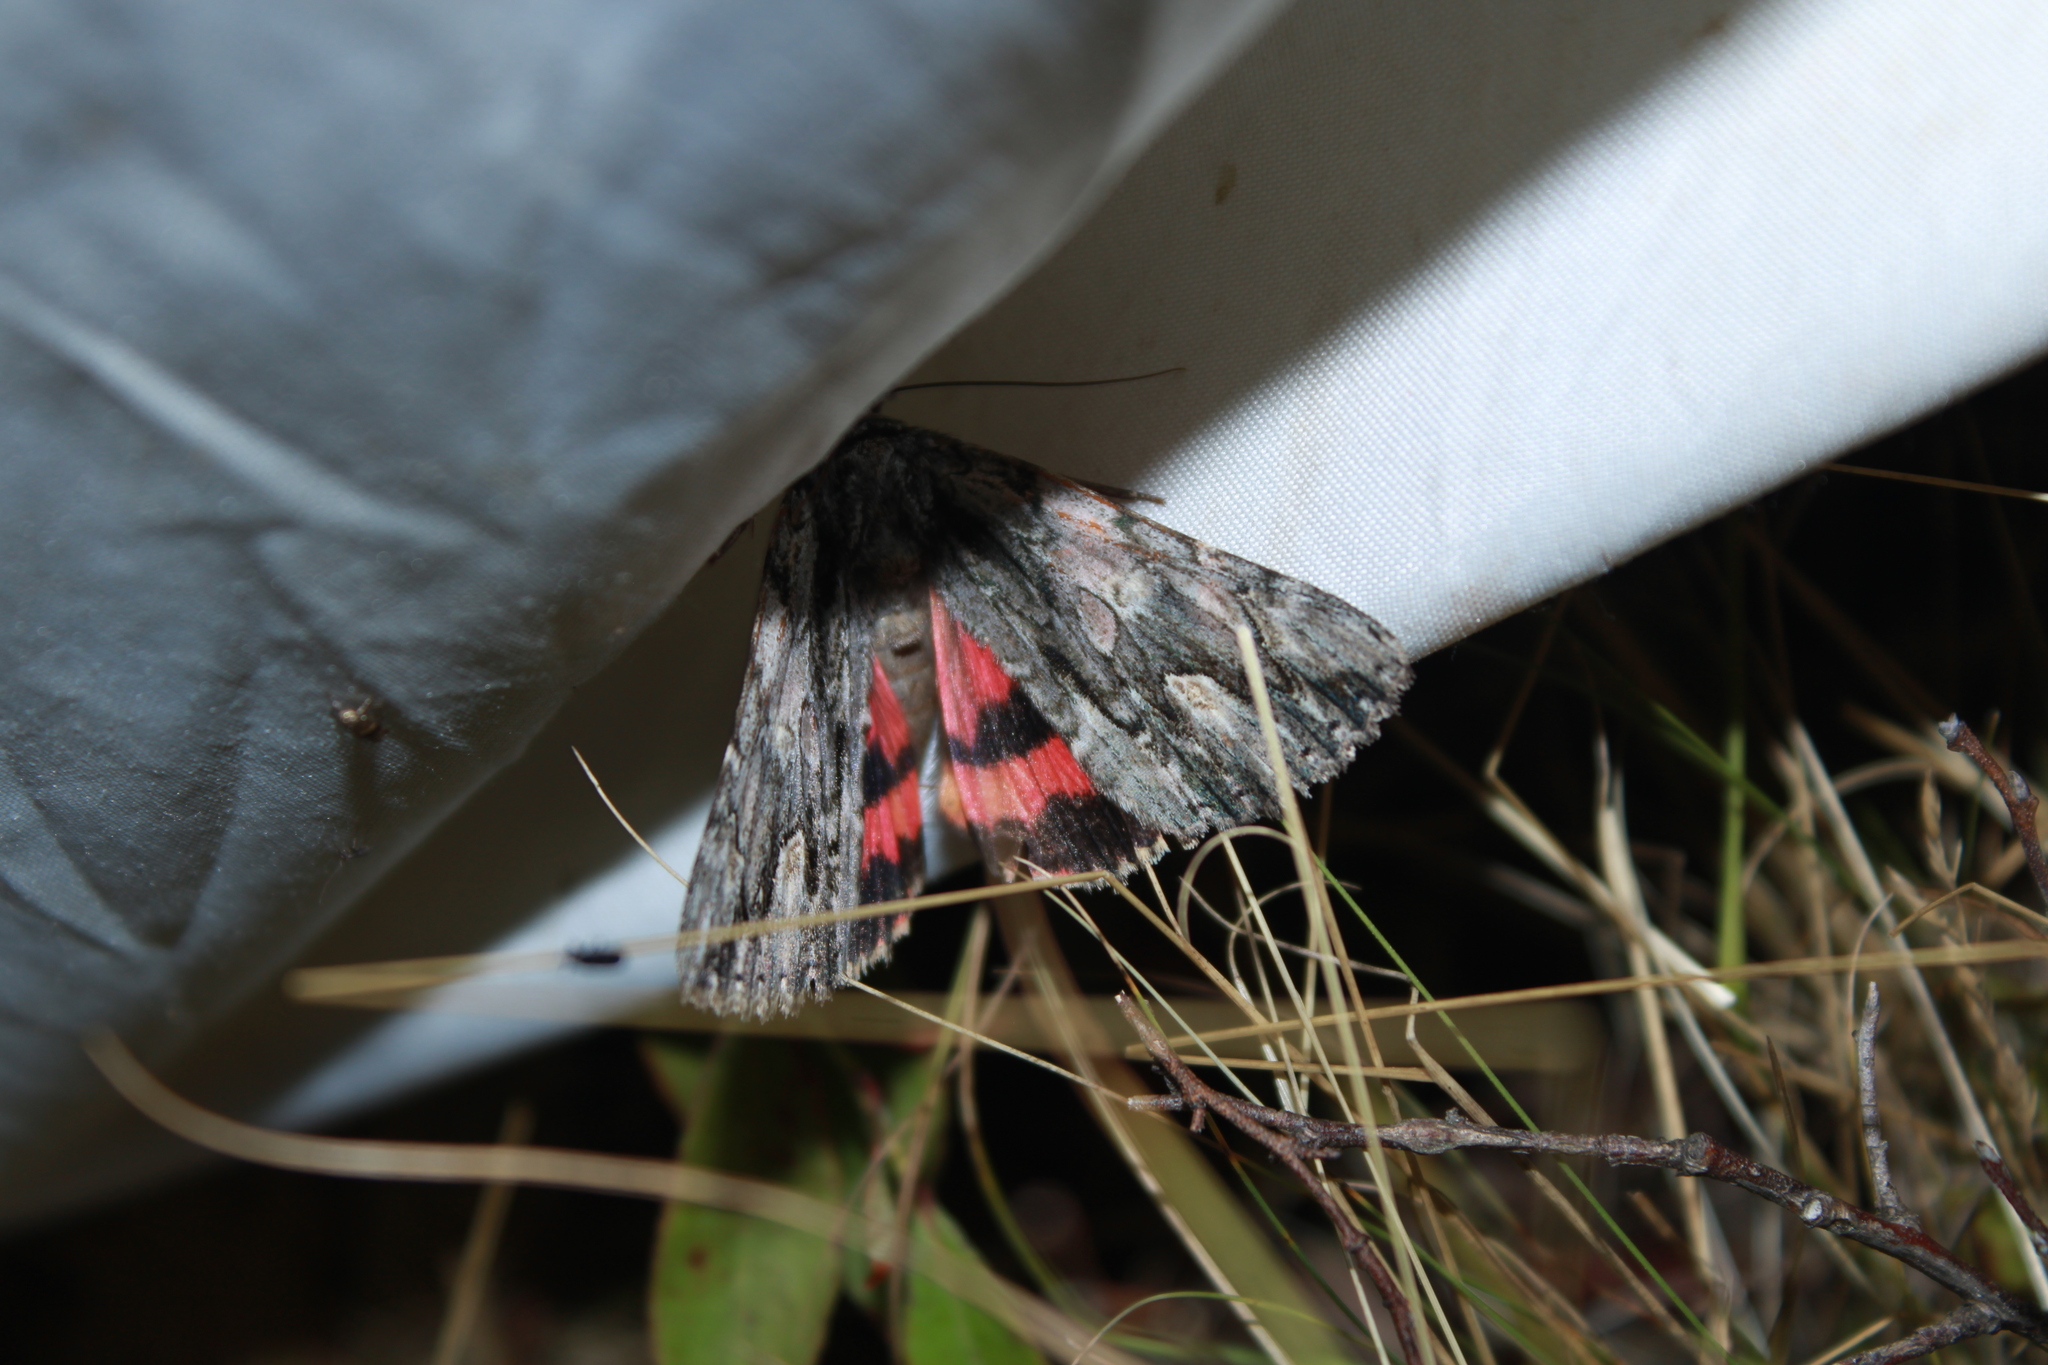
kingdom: Animalia
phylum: Arthropoda
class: Insecta
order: Lepidoptera
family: Erebidae
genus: Catocala
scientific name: Catocala coccinata
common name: Scarlet underwing
